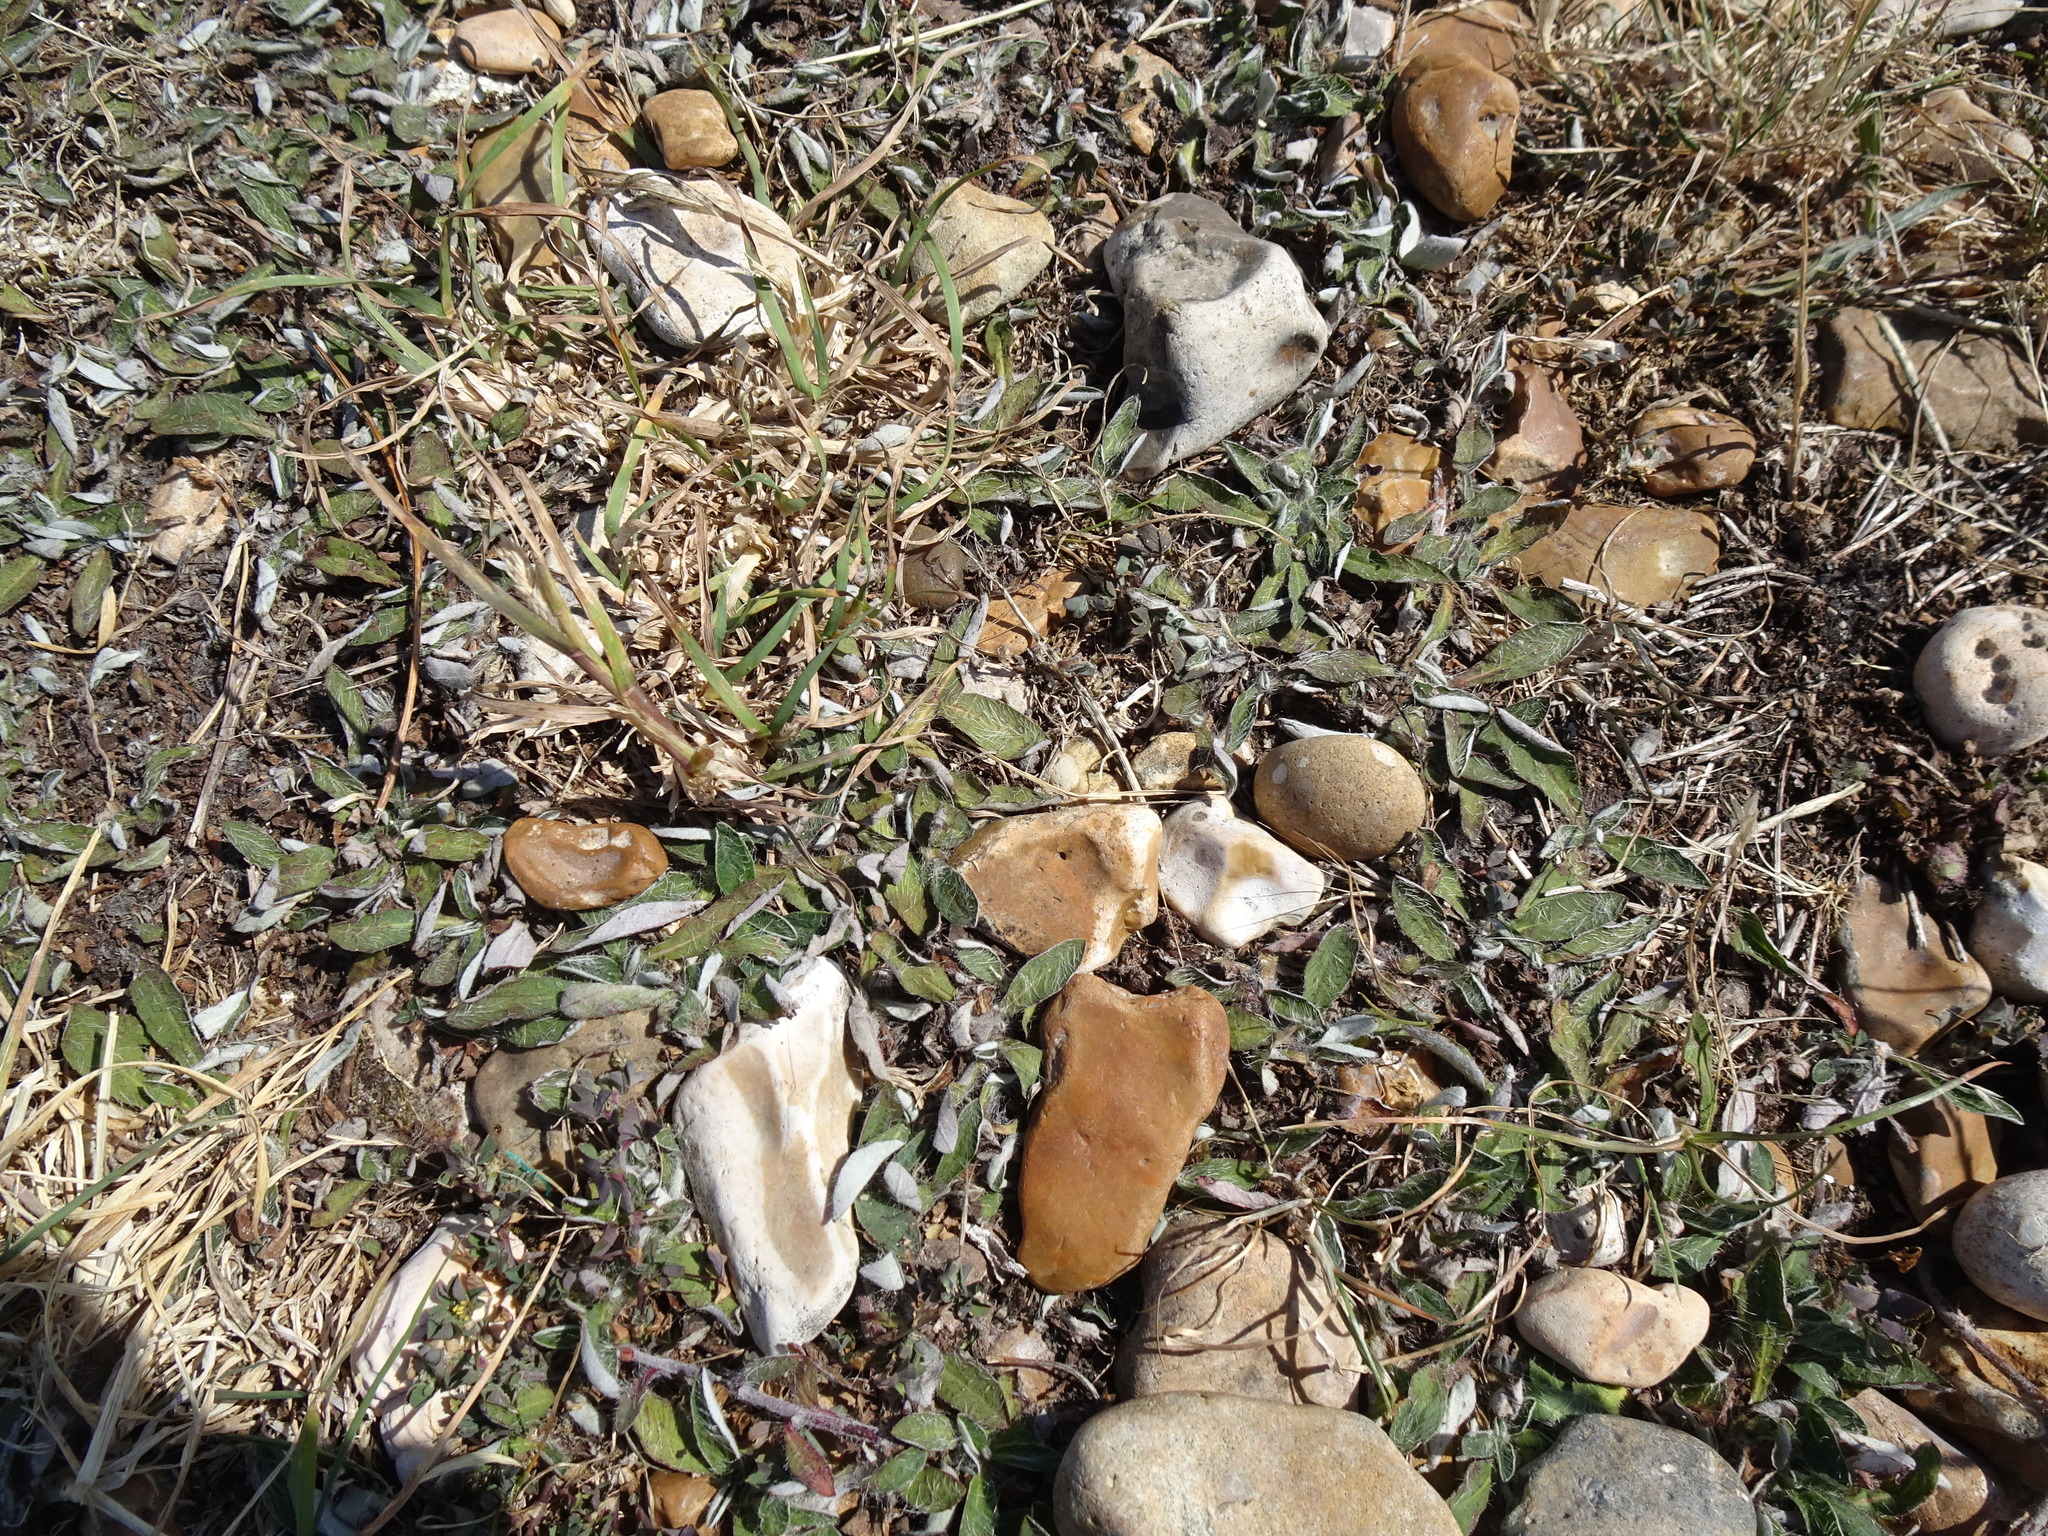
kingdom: Plantae
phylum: Tracheophyta
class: Magnoliopsida
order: Asterales
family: Asteraceae
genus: Pilosella
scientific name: Pilosella officinarum
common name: Mouse-ear hawkweed
